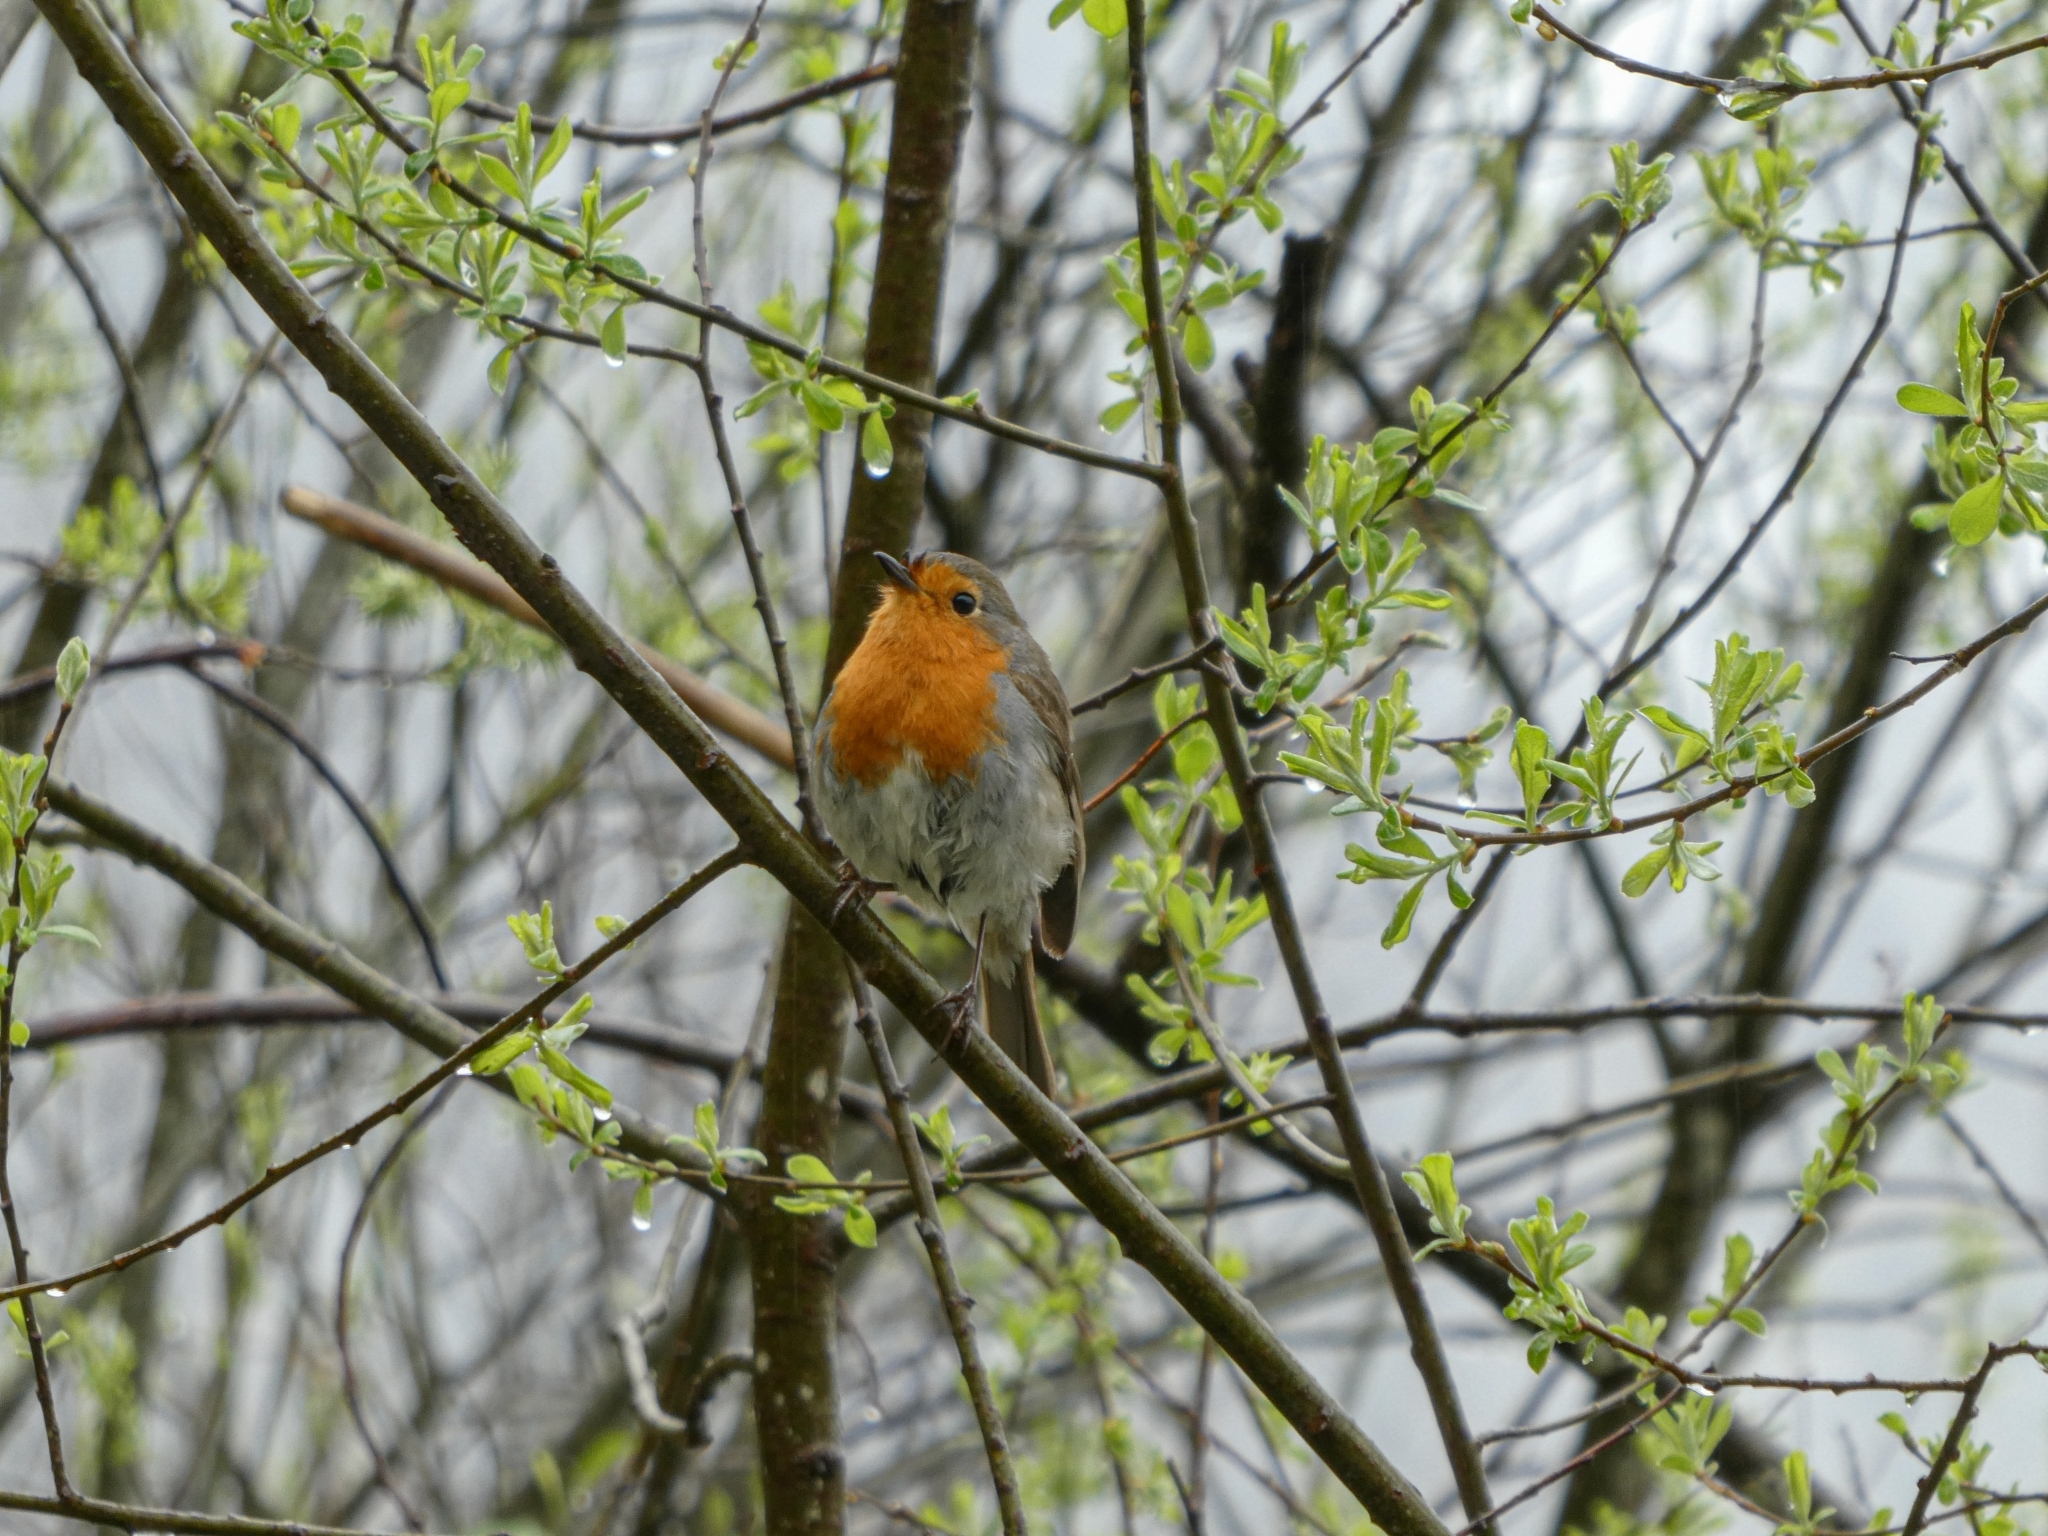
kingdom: Animalia
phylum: Chordata
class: Aves
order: Passeriformes
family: Muscicapidae
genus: Erithacus
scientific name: Erithacus rubecula
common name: European robin
